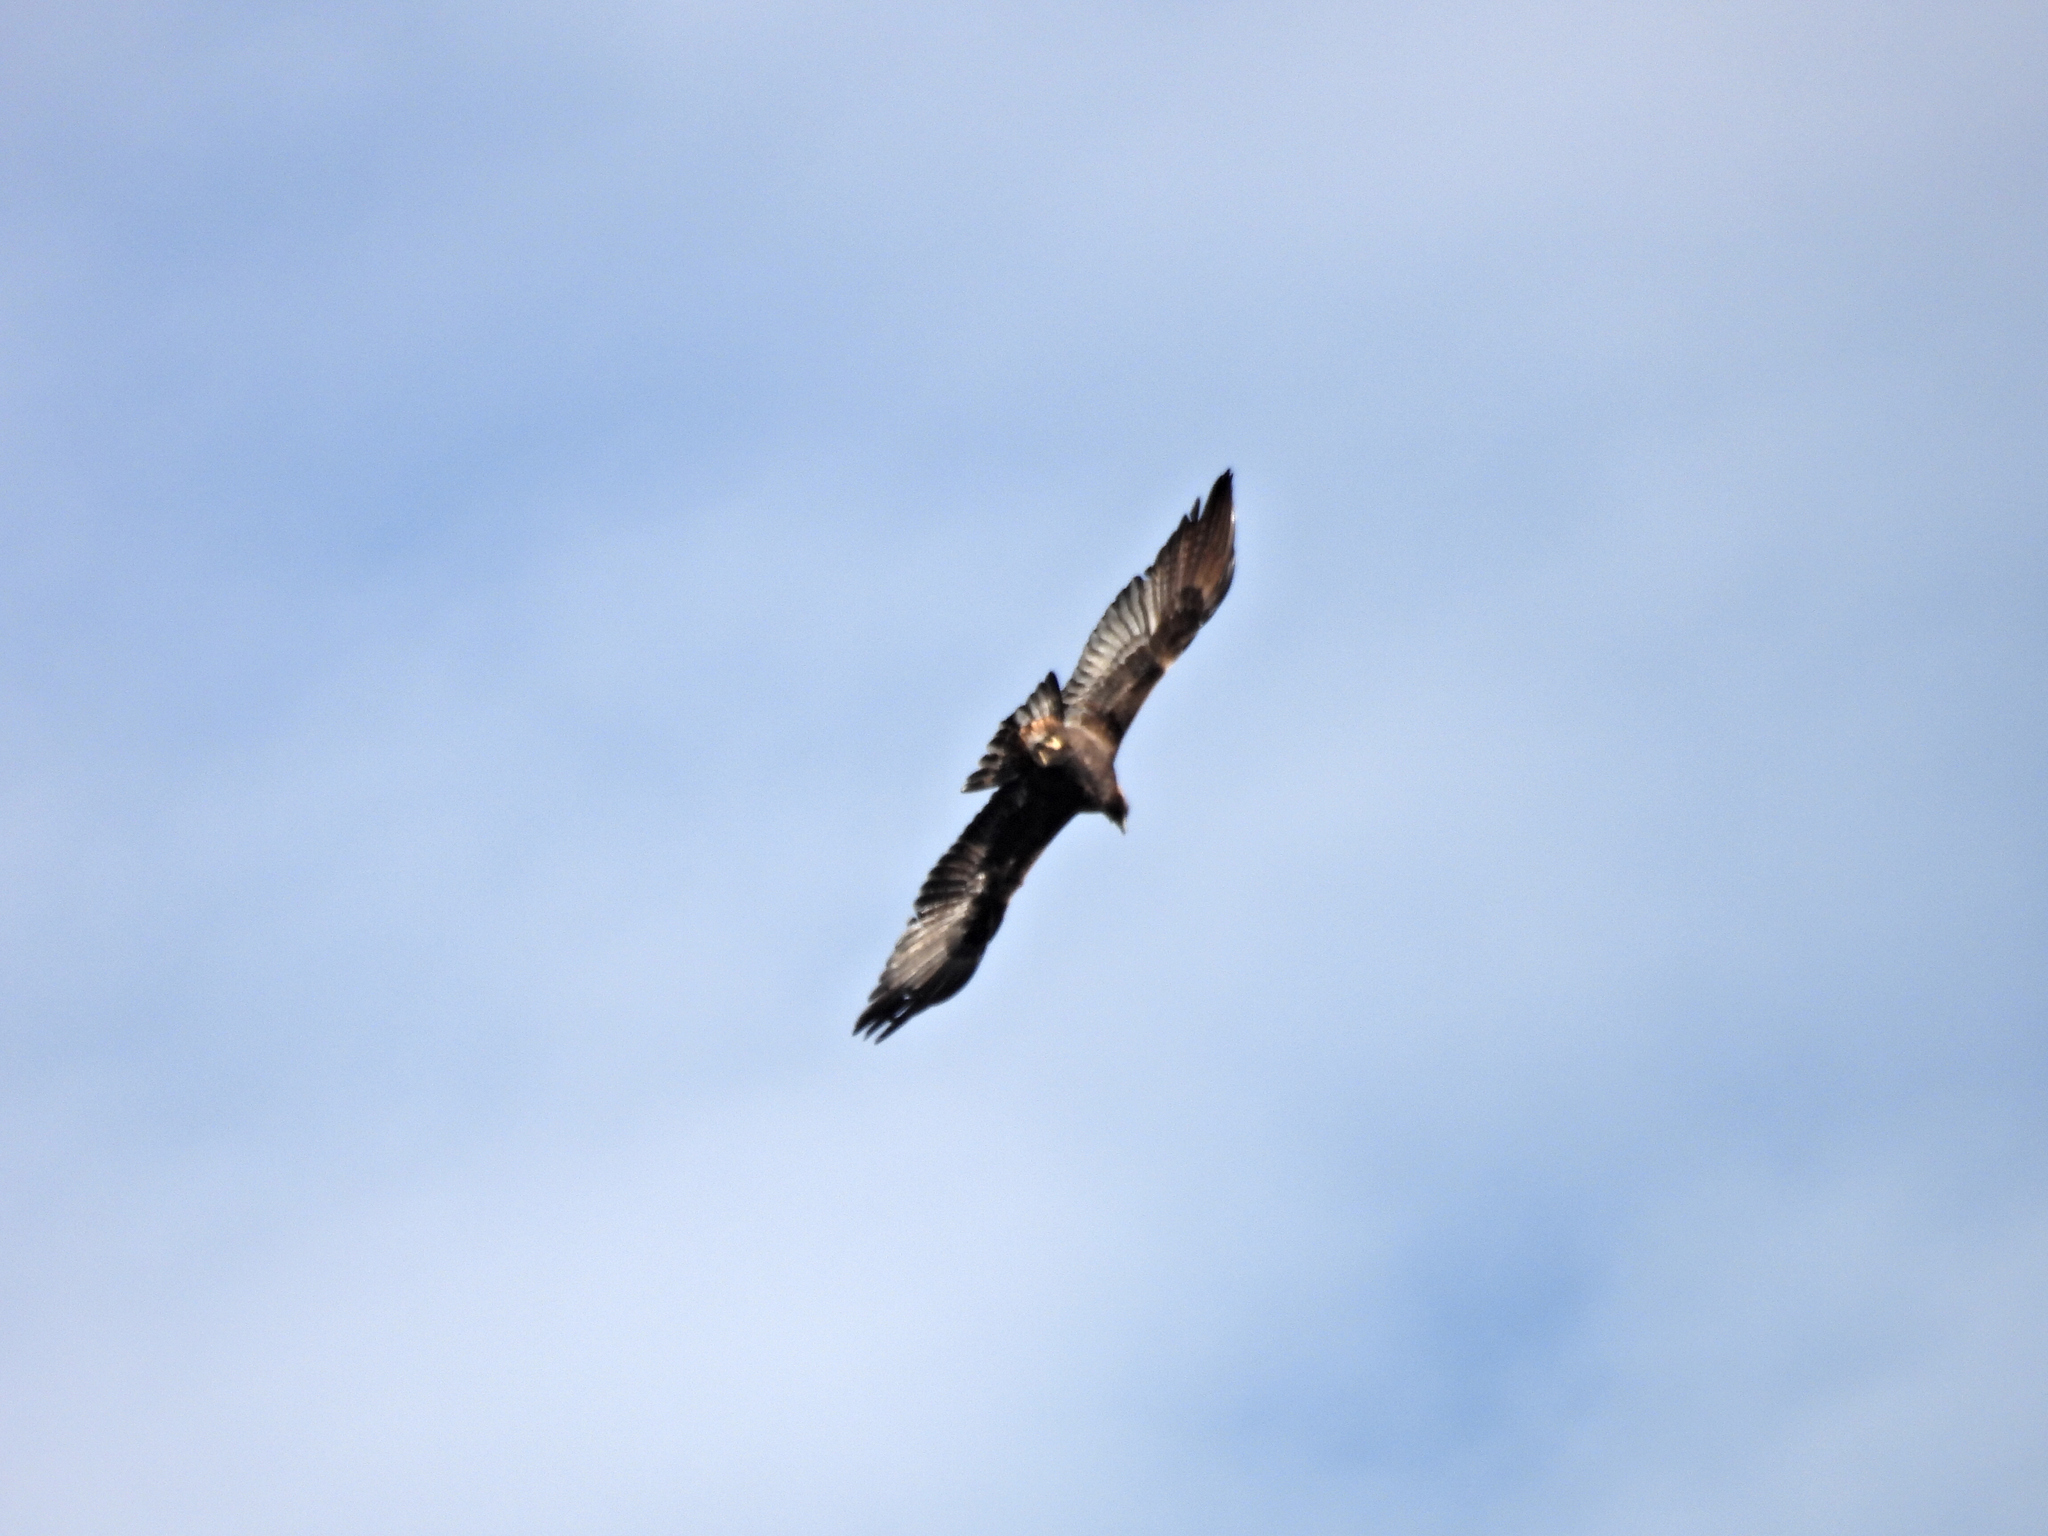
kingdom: Animalia
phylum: Chordata
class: Aves
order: Accipitriformes
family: Accipitridae
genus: Aquila
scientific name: Aquila chrysaetos
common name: Golden eagle
